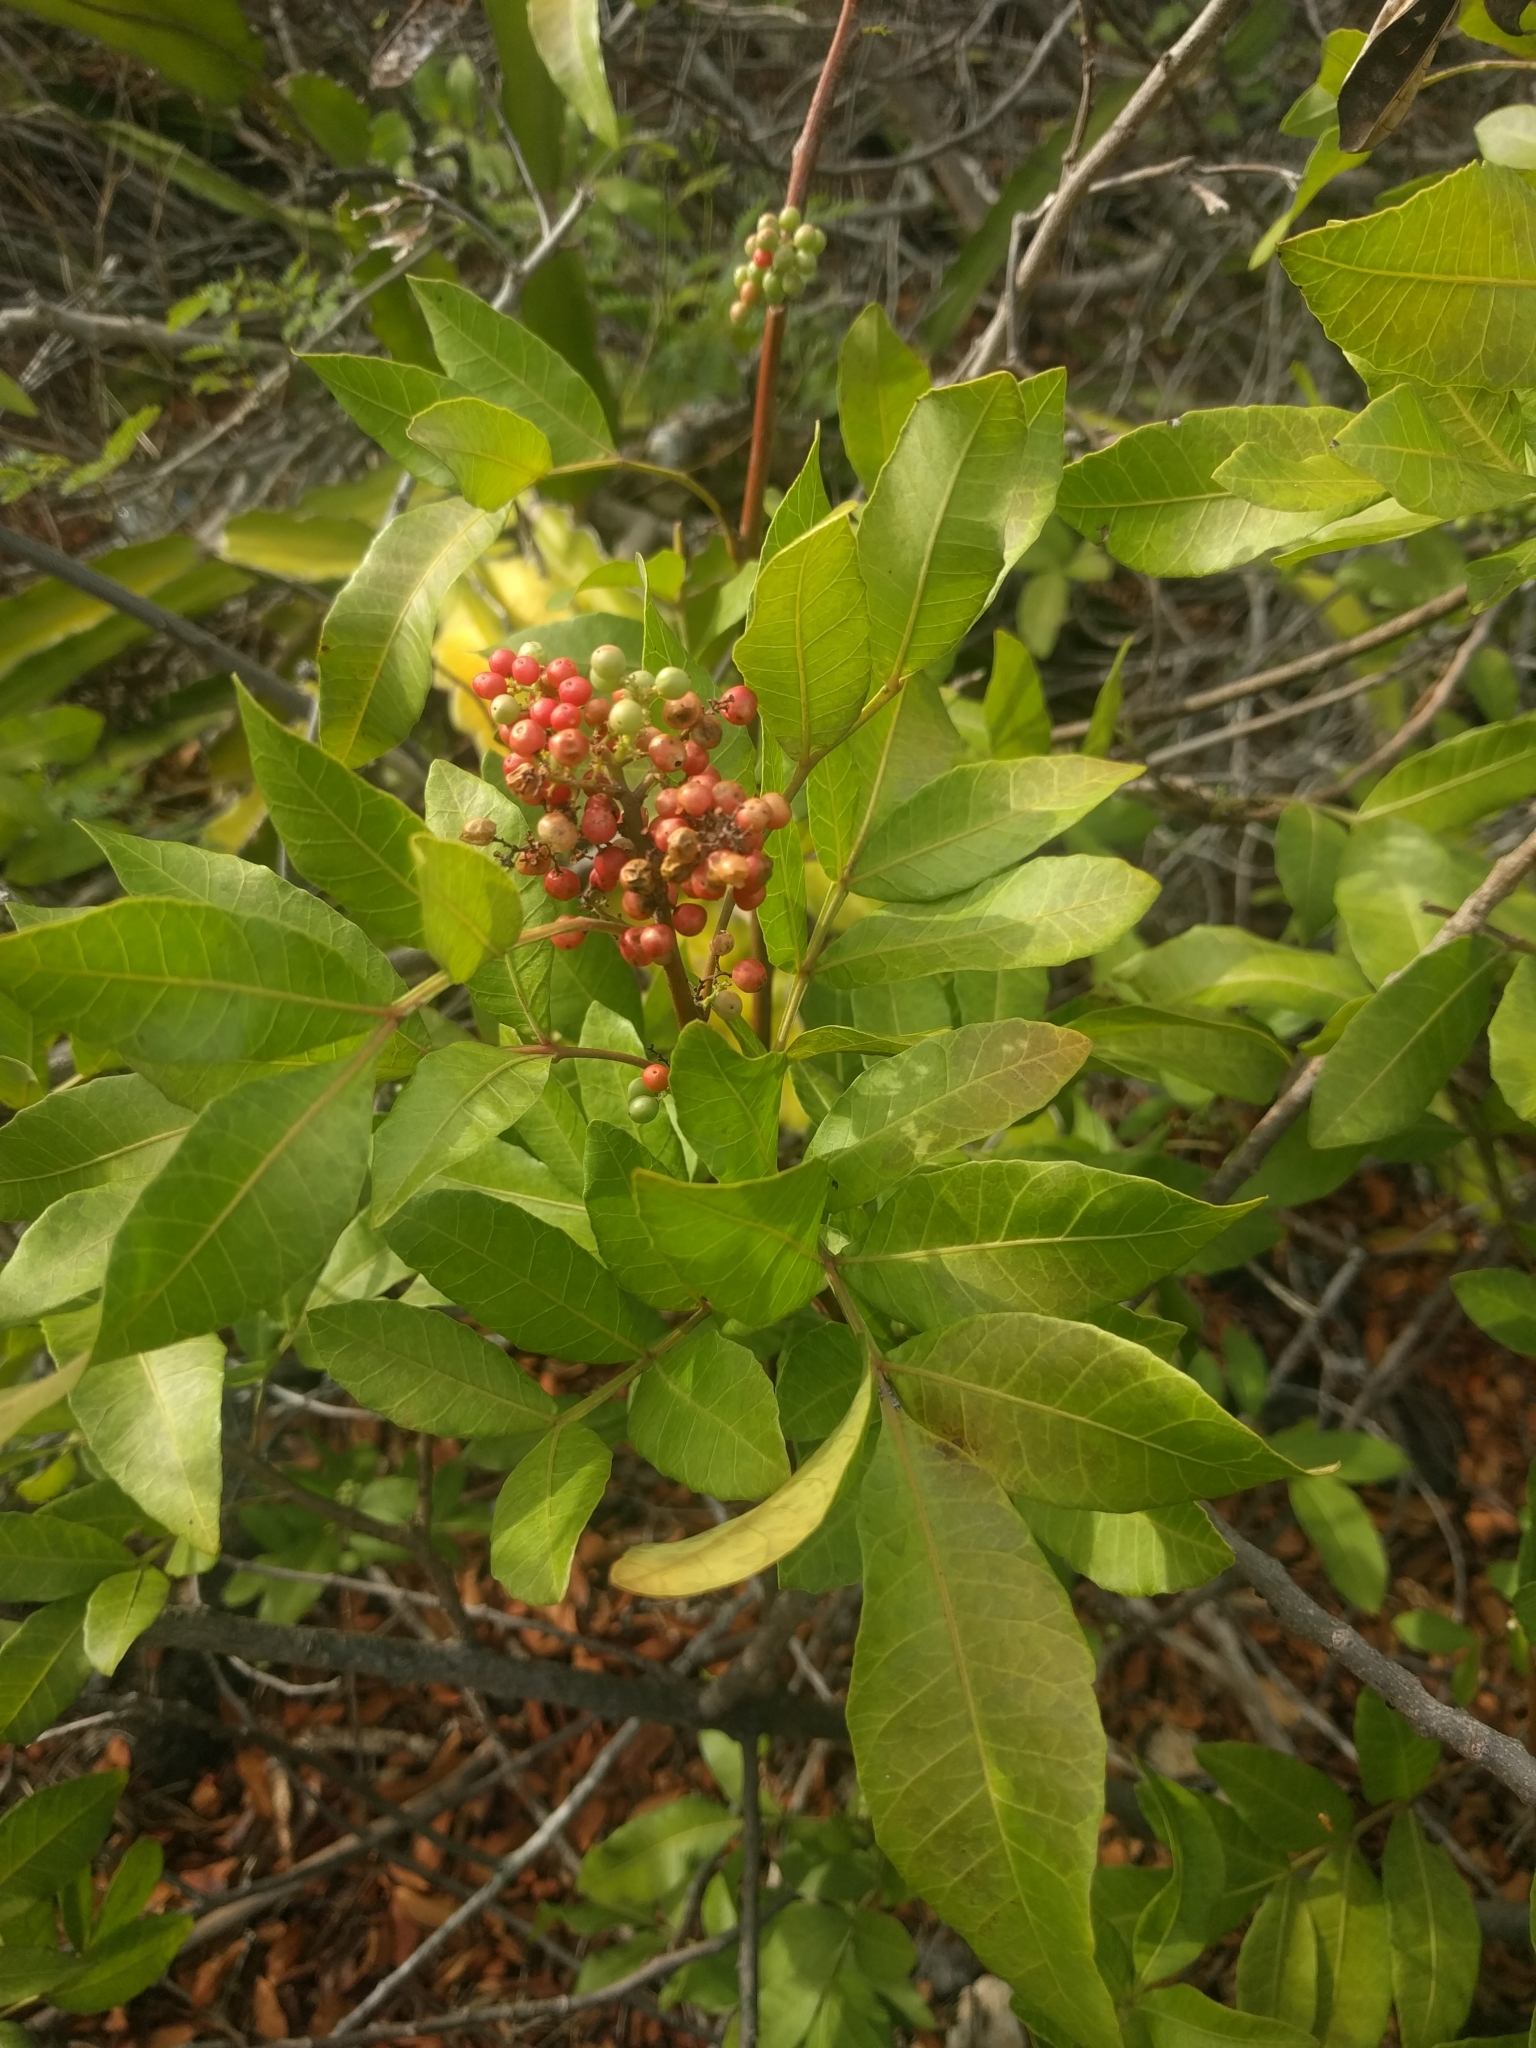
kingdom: Plantae
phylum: Tracheophyta
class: Magnoliopsida
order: Sapindales
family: Anacardiaceae
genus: Schinus
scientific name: Schinus terebinthifolia
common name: Brazilian peppertree
